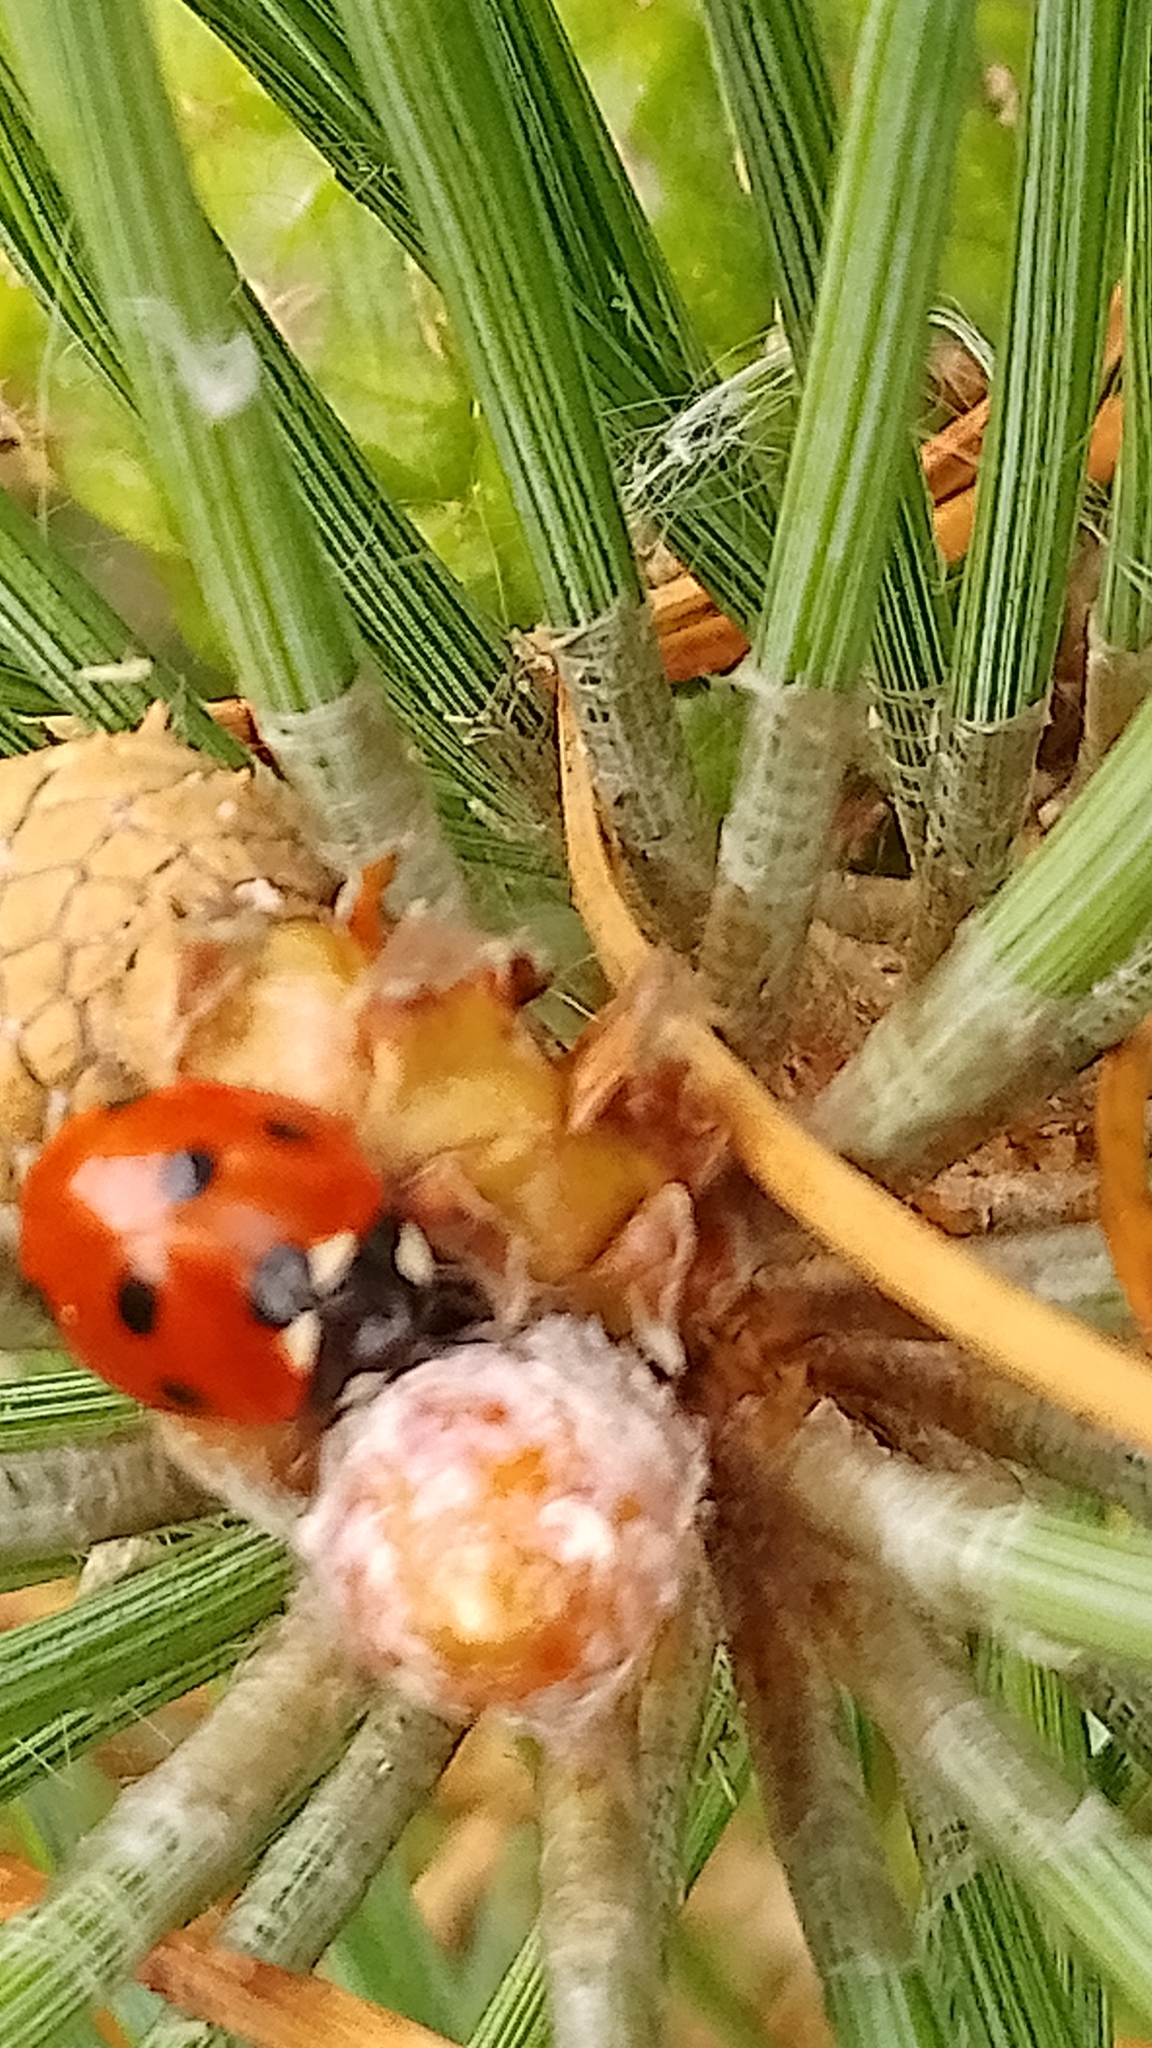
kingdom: Animalia
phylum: Arthropoda
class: Insecta
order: Coleoptera
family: Coccinellidae
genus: Coccinella
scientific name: Coccinella septempunctata
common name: Sevenspotted lady beetle
